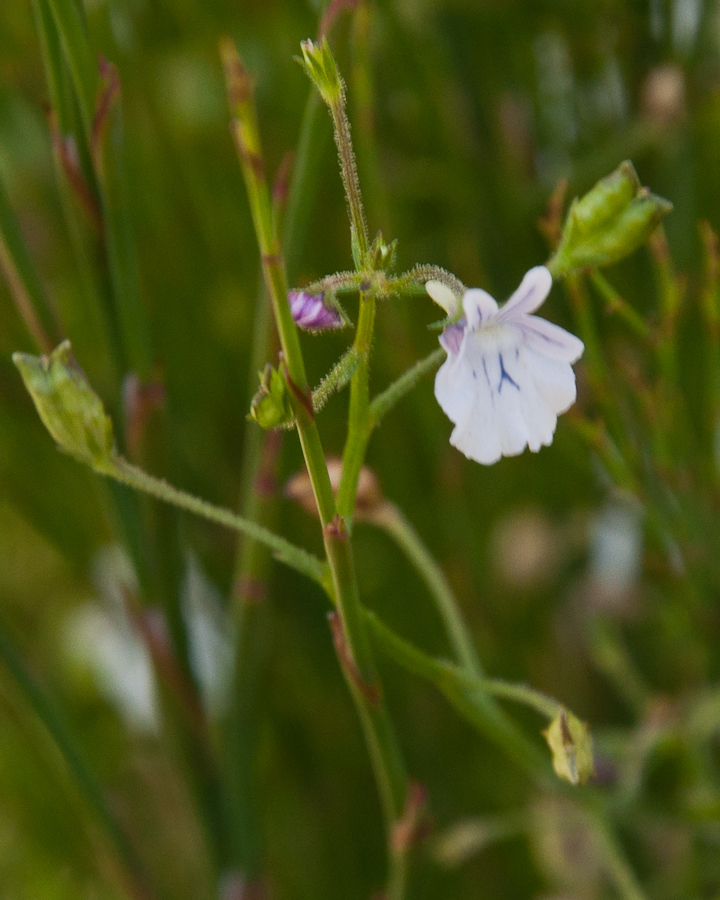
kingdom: Plantae
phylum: Tracheophyta
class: Magnoliopsida
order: Lamiales
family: Scrophulariaceae
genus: Nemesia
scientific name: Nemesia diffusa
